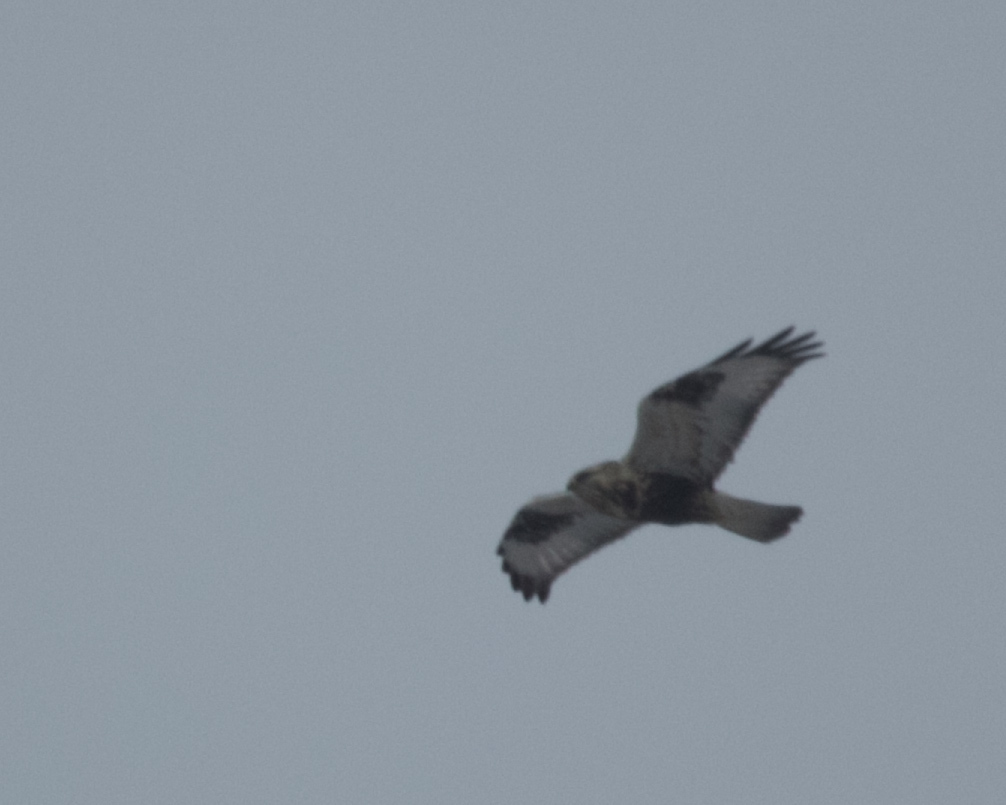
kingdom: Animalia
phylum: Chordata
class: Aves
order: Accipitriformes
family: Accipitridae
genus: Buteo
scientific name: Buteo lagopus
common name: Rough-legged buzzard
